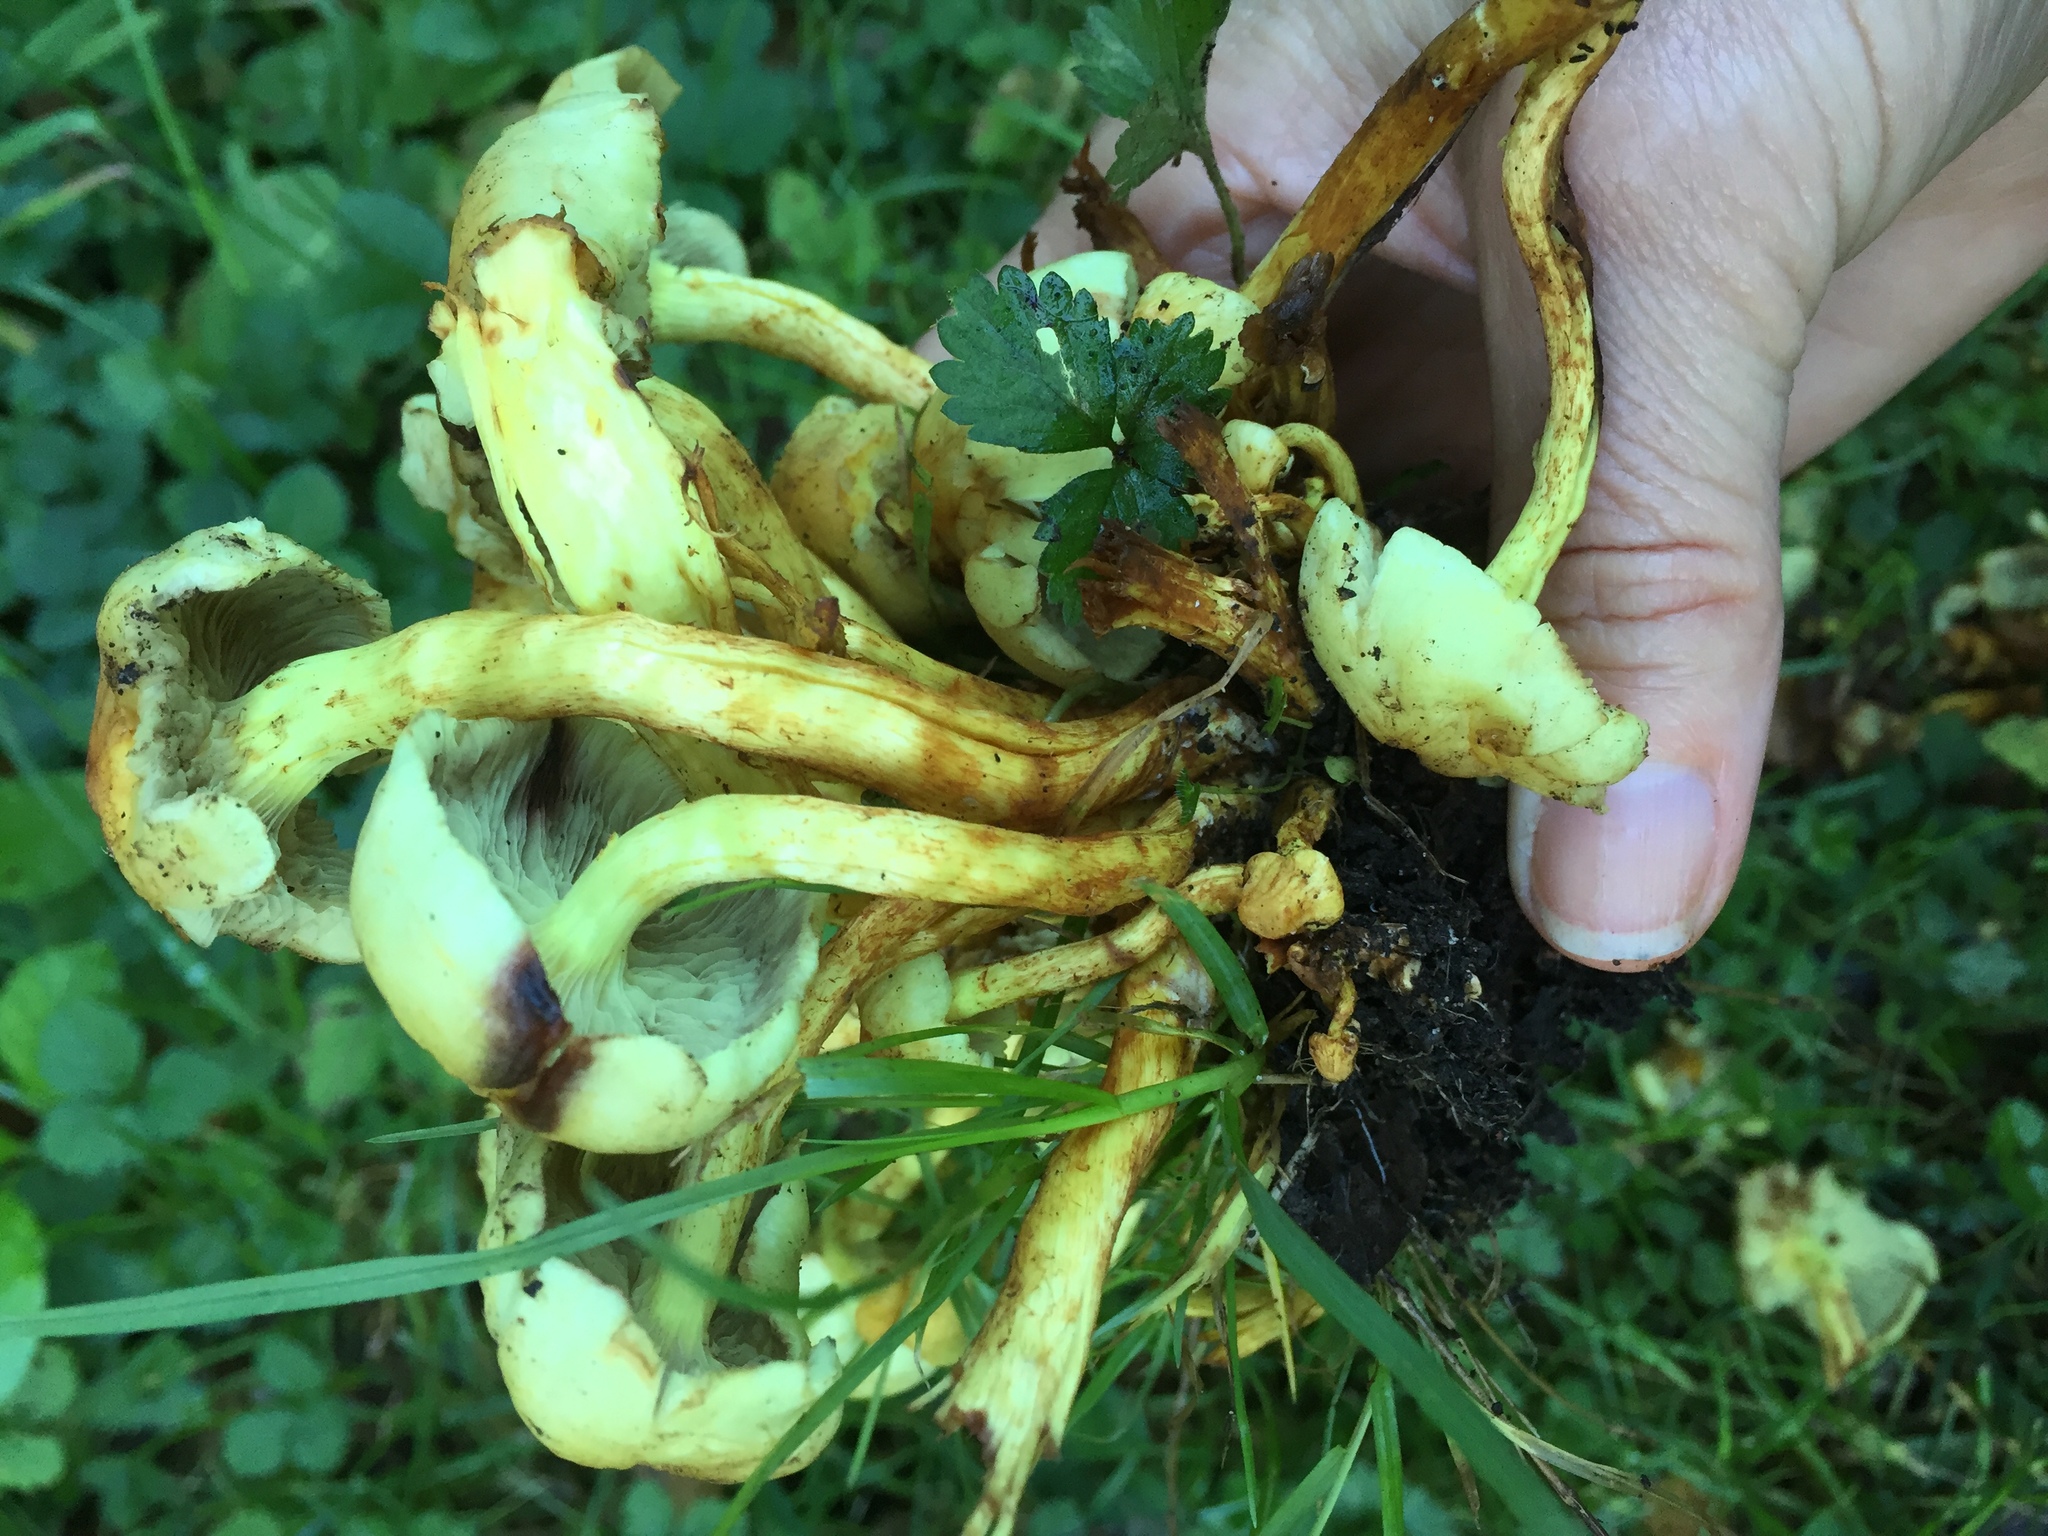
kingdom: Fungi
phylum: Basidiomycota
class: Agaricomycetes
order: Agaricales
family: Strophariaceae
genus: Hypholoma
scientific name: Hypholoma fasciculare
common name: Sulphur tuft
